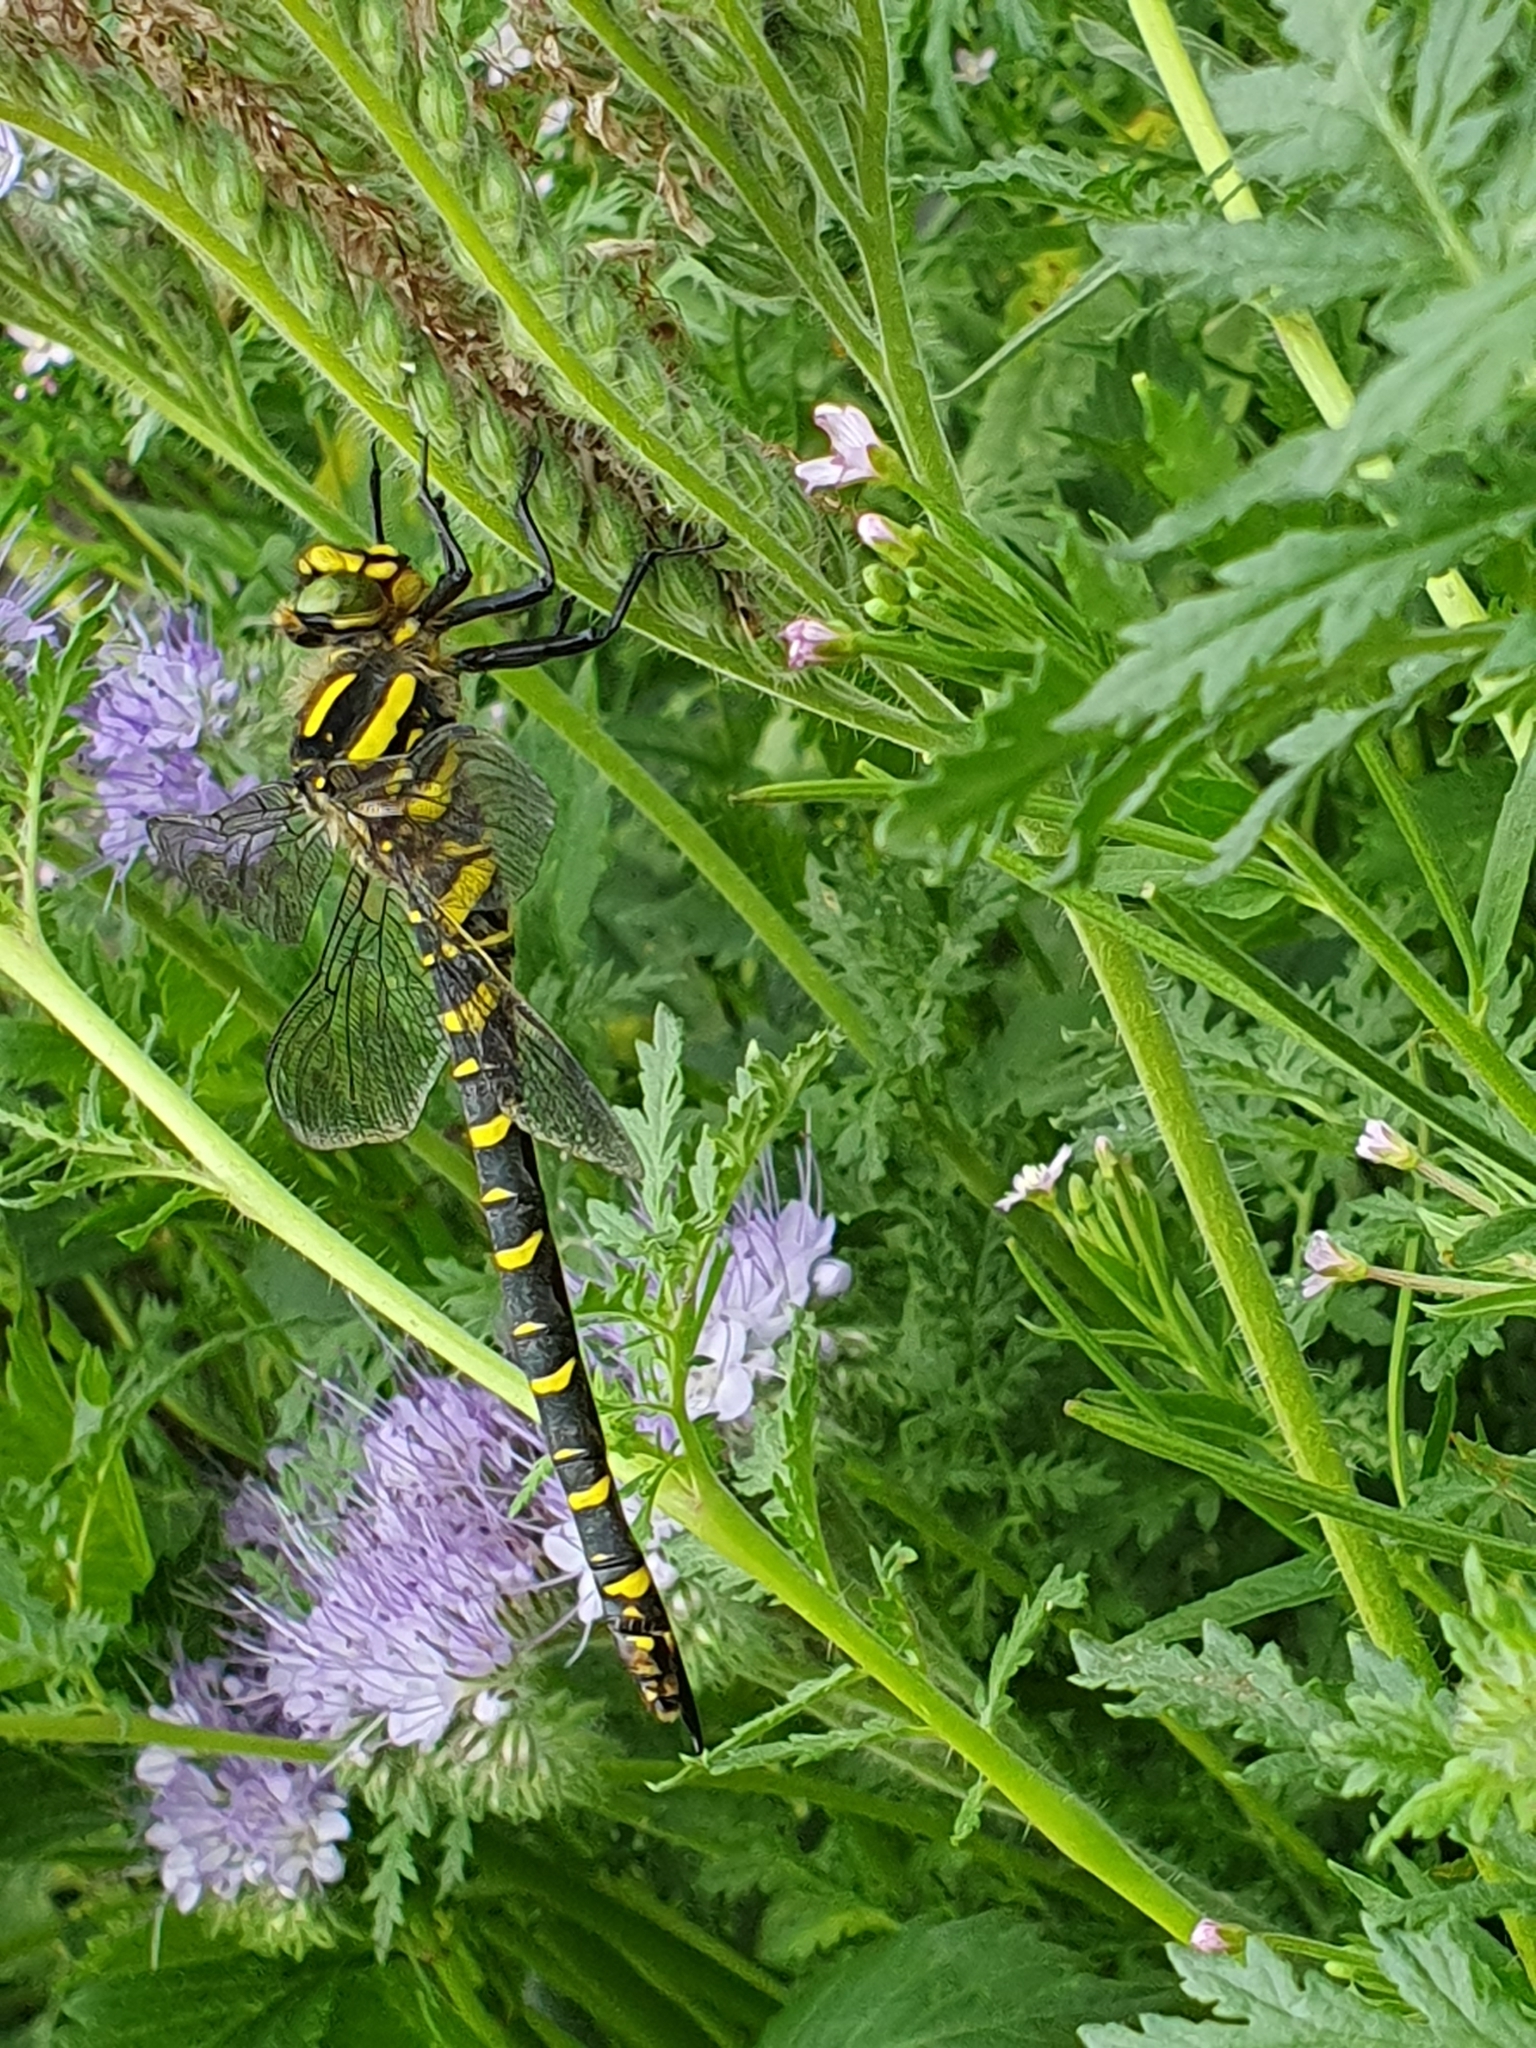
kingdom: Animalia
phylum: Arthropoda
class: Insecta
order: Odonata
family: Cordulegastridae
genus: Cordulegaster
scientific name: Cordulegaster boltonii
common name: Golden-ringed dragonfly
